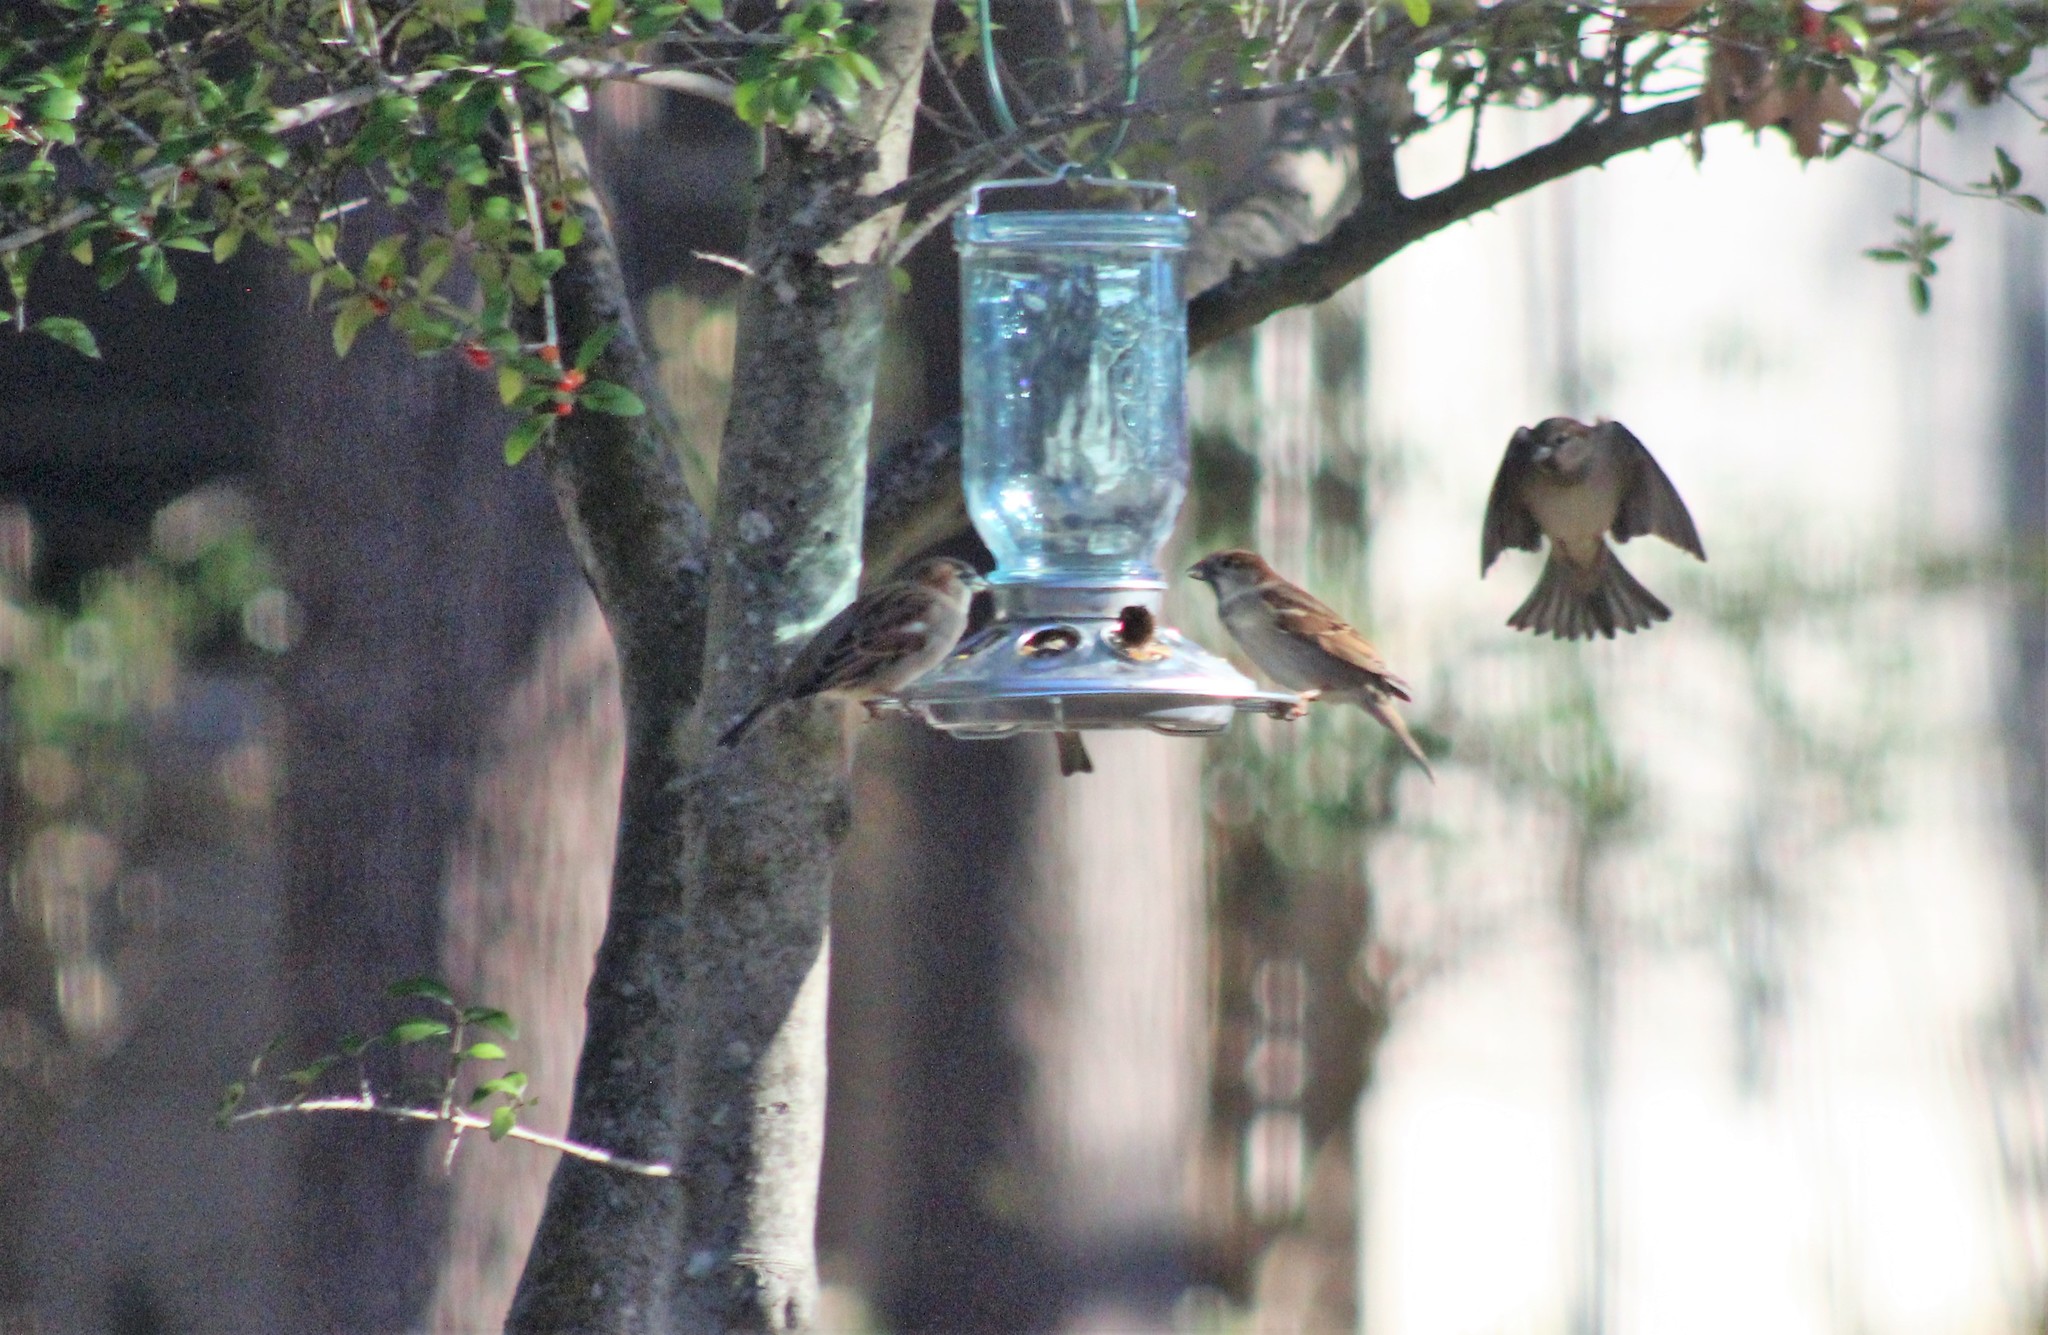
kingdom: Animalia
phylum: Chordata
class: Aves
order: Passeriformes
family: Passeridae
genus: Passer
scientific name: Passer domesticus
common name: House sparrow
